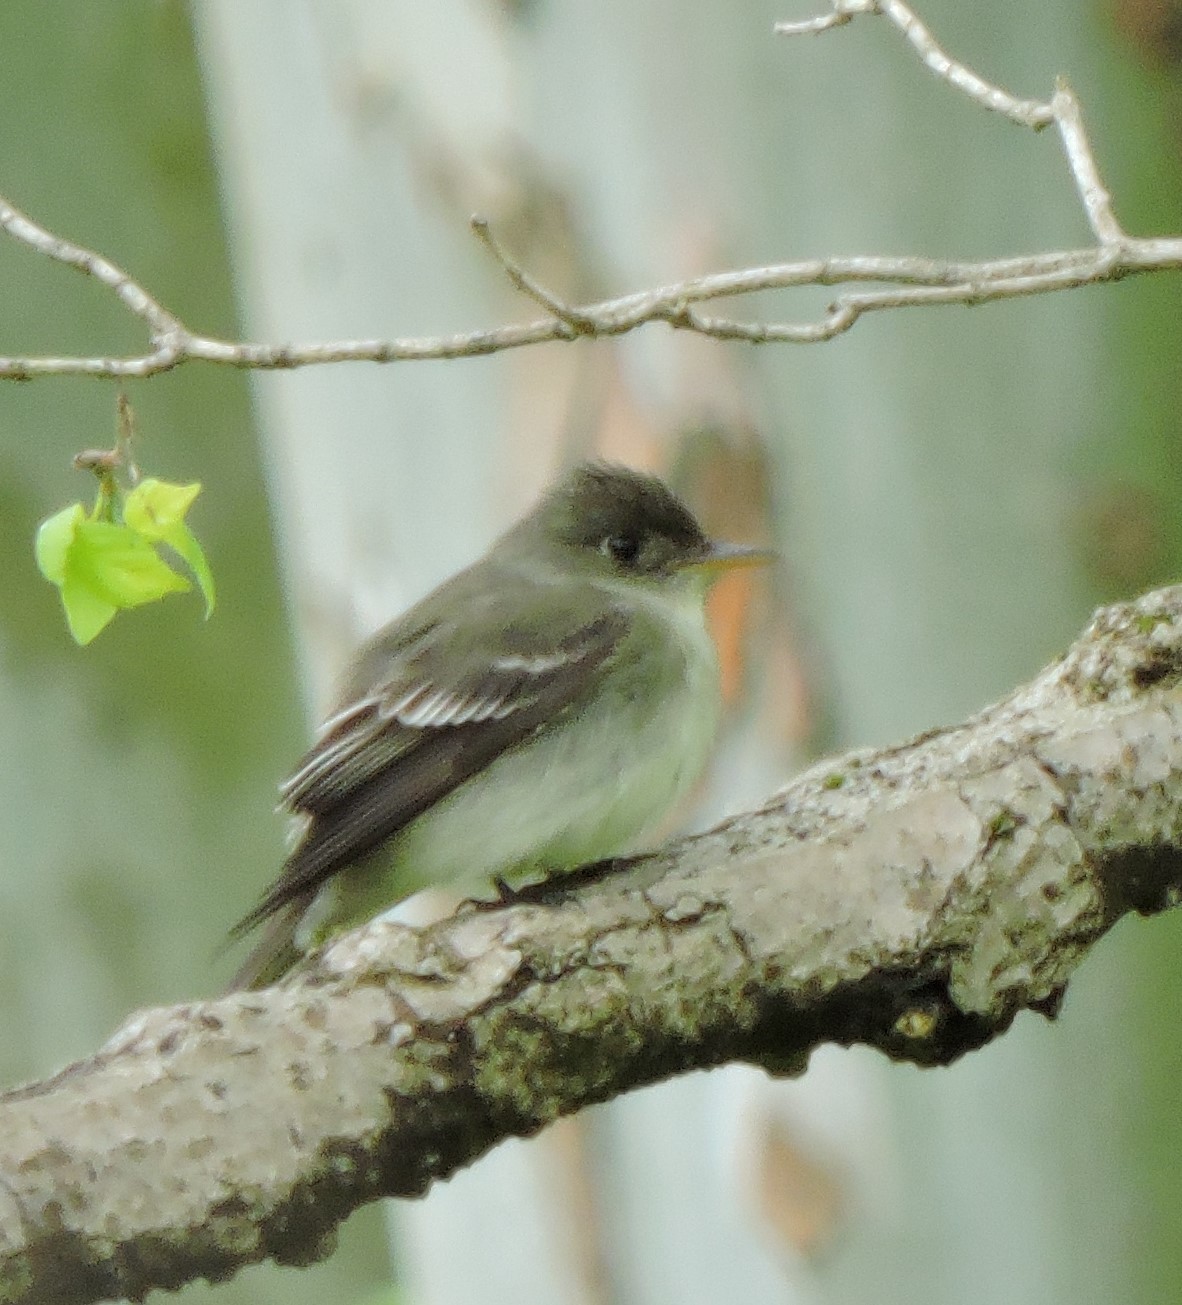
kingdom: Animalia
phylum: Chordata
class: Aves
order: Passeriformes
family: Tyrannidae
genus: Contopus
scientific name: Contopus virens
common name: Eastern wood-pewee
